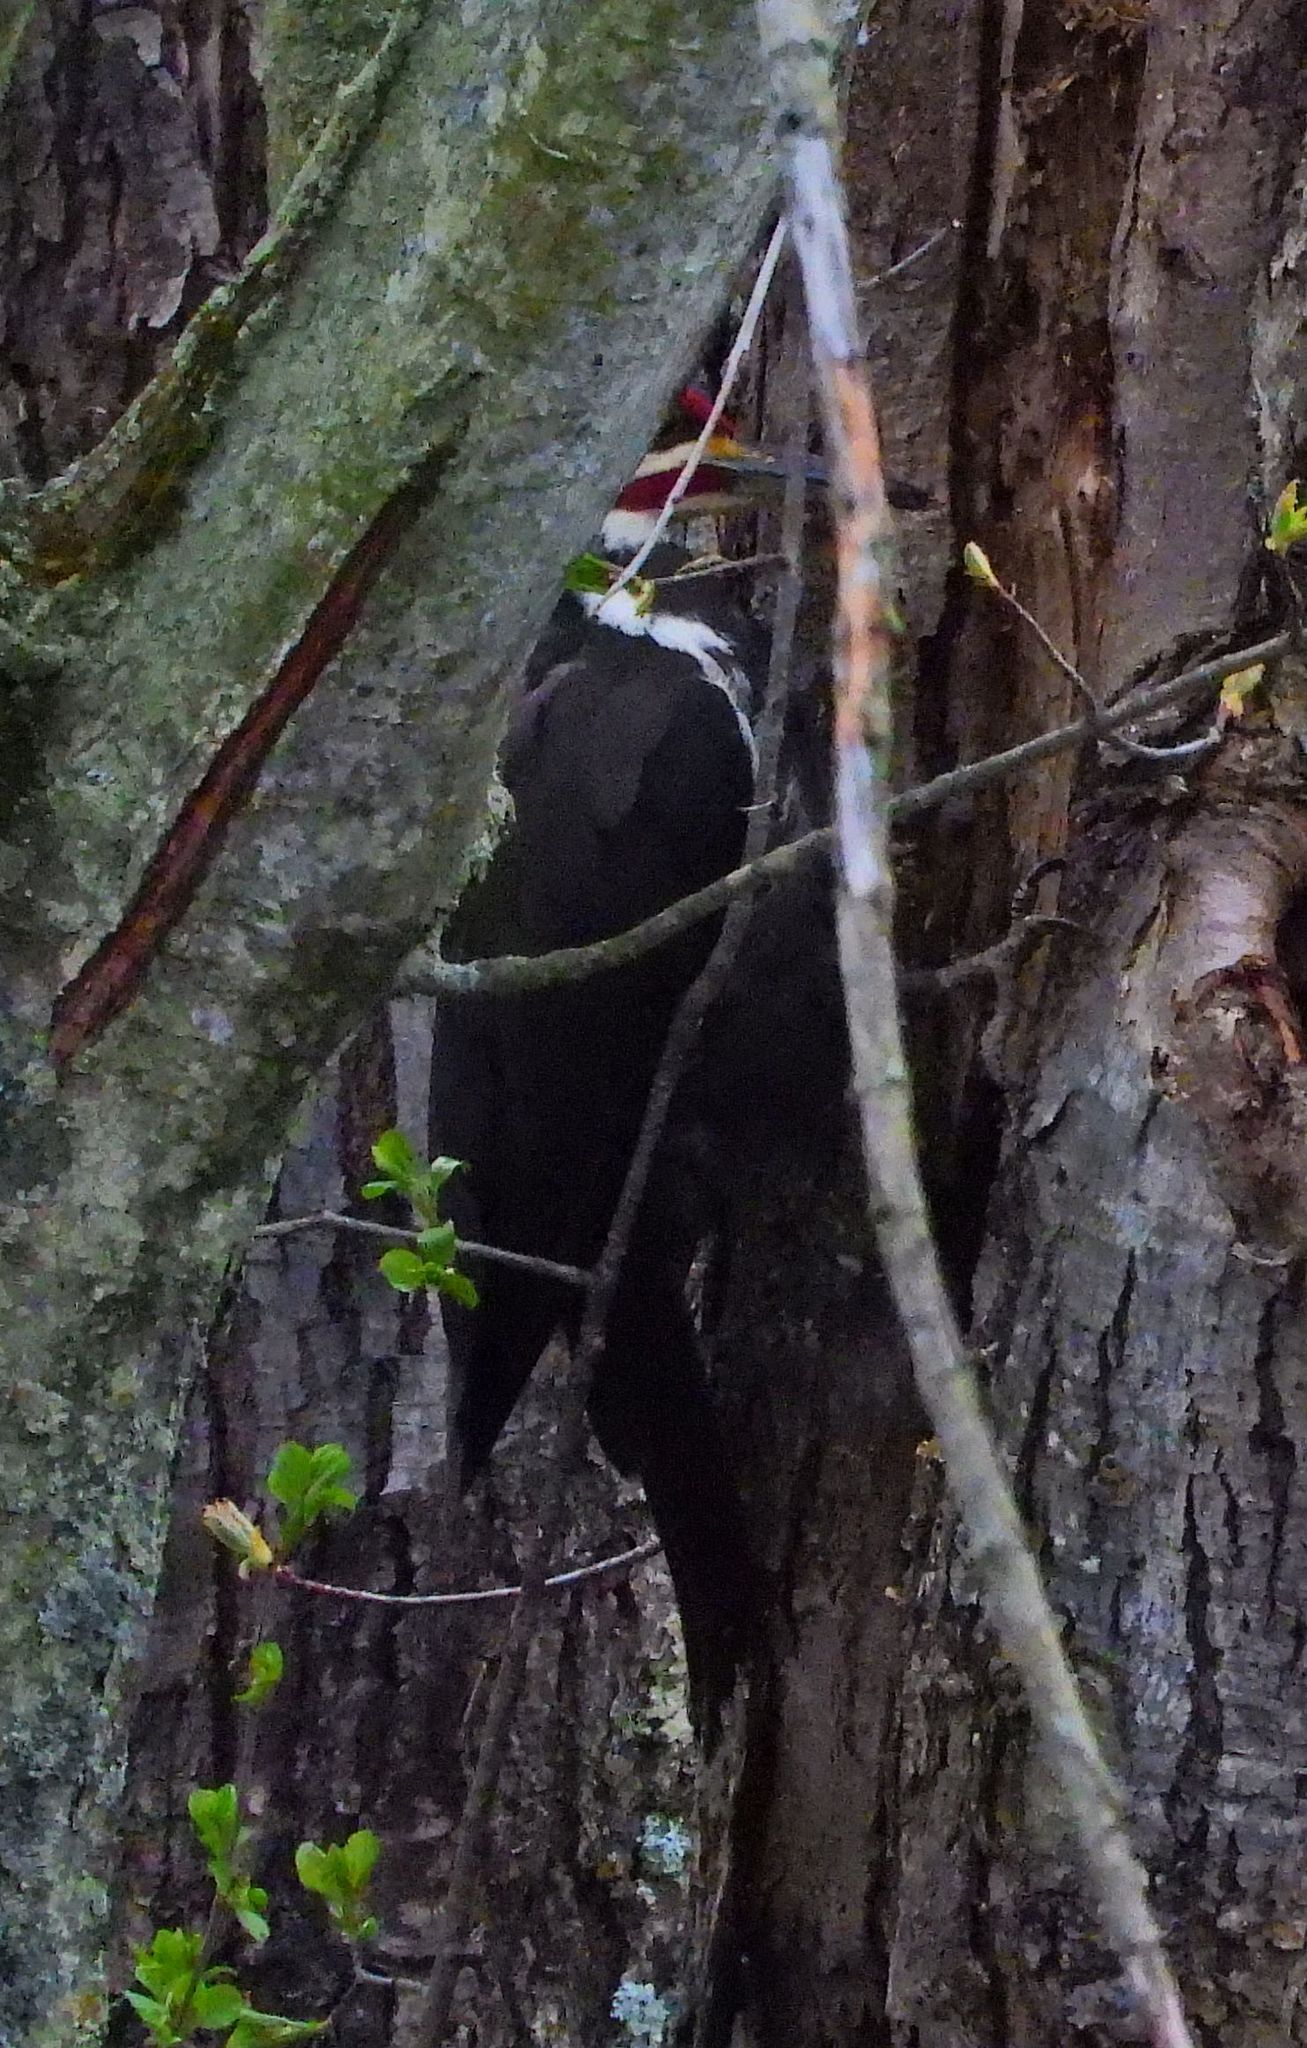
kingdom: Animalia
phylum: Chordata
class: Aves
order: Piciformes
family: Picidae
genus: Dryocopus
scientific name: Dryocopus pileatus
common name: Pileated woodpecker
